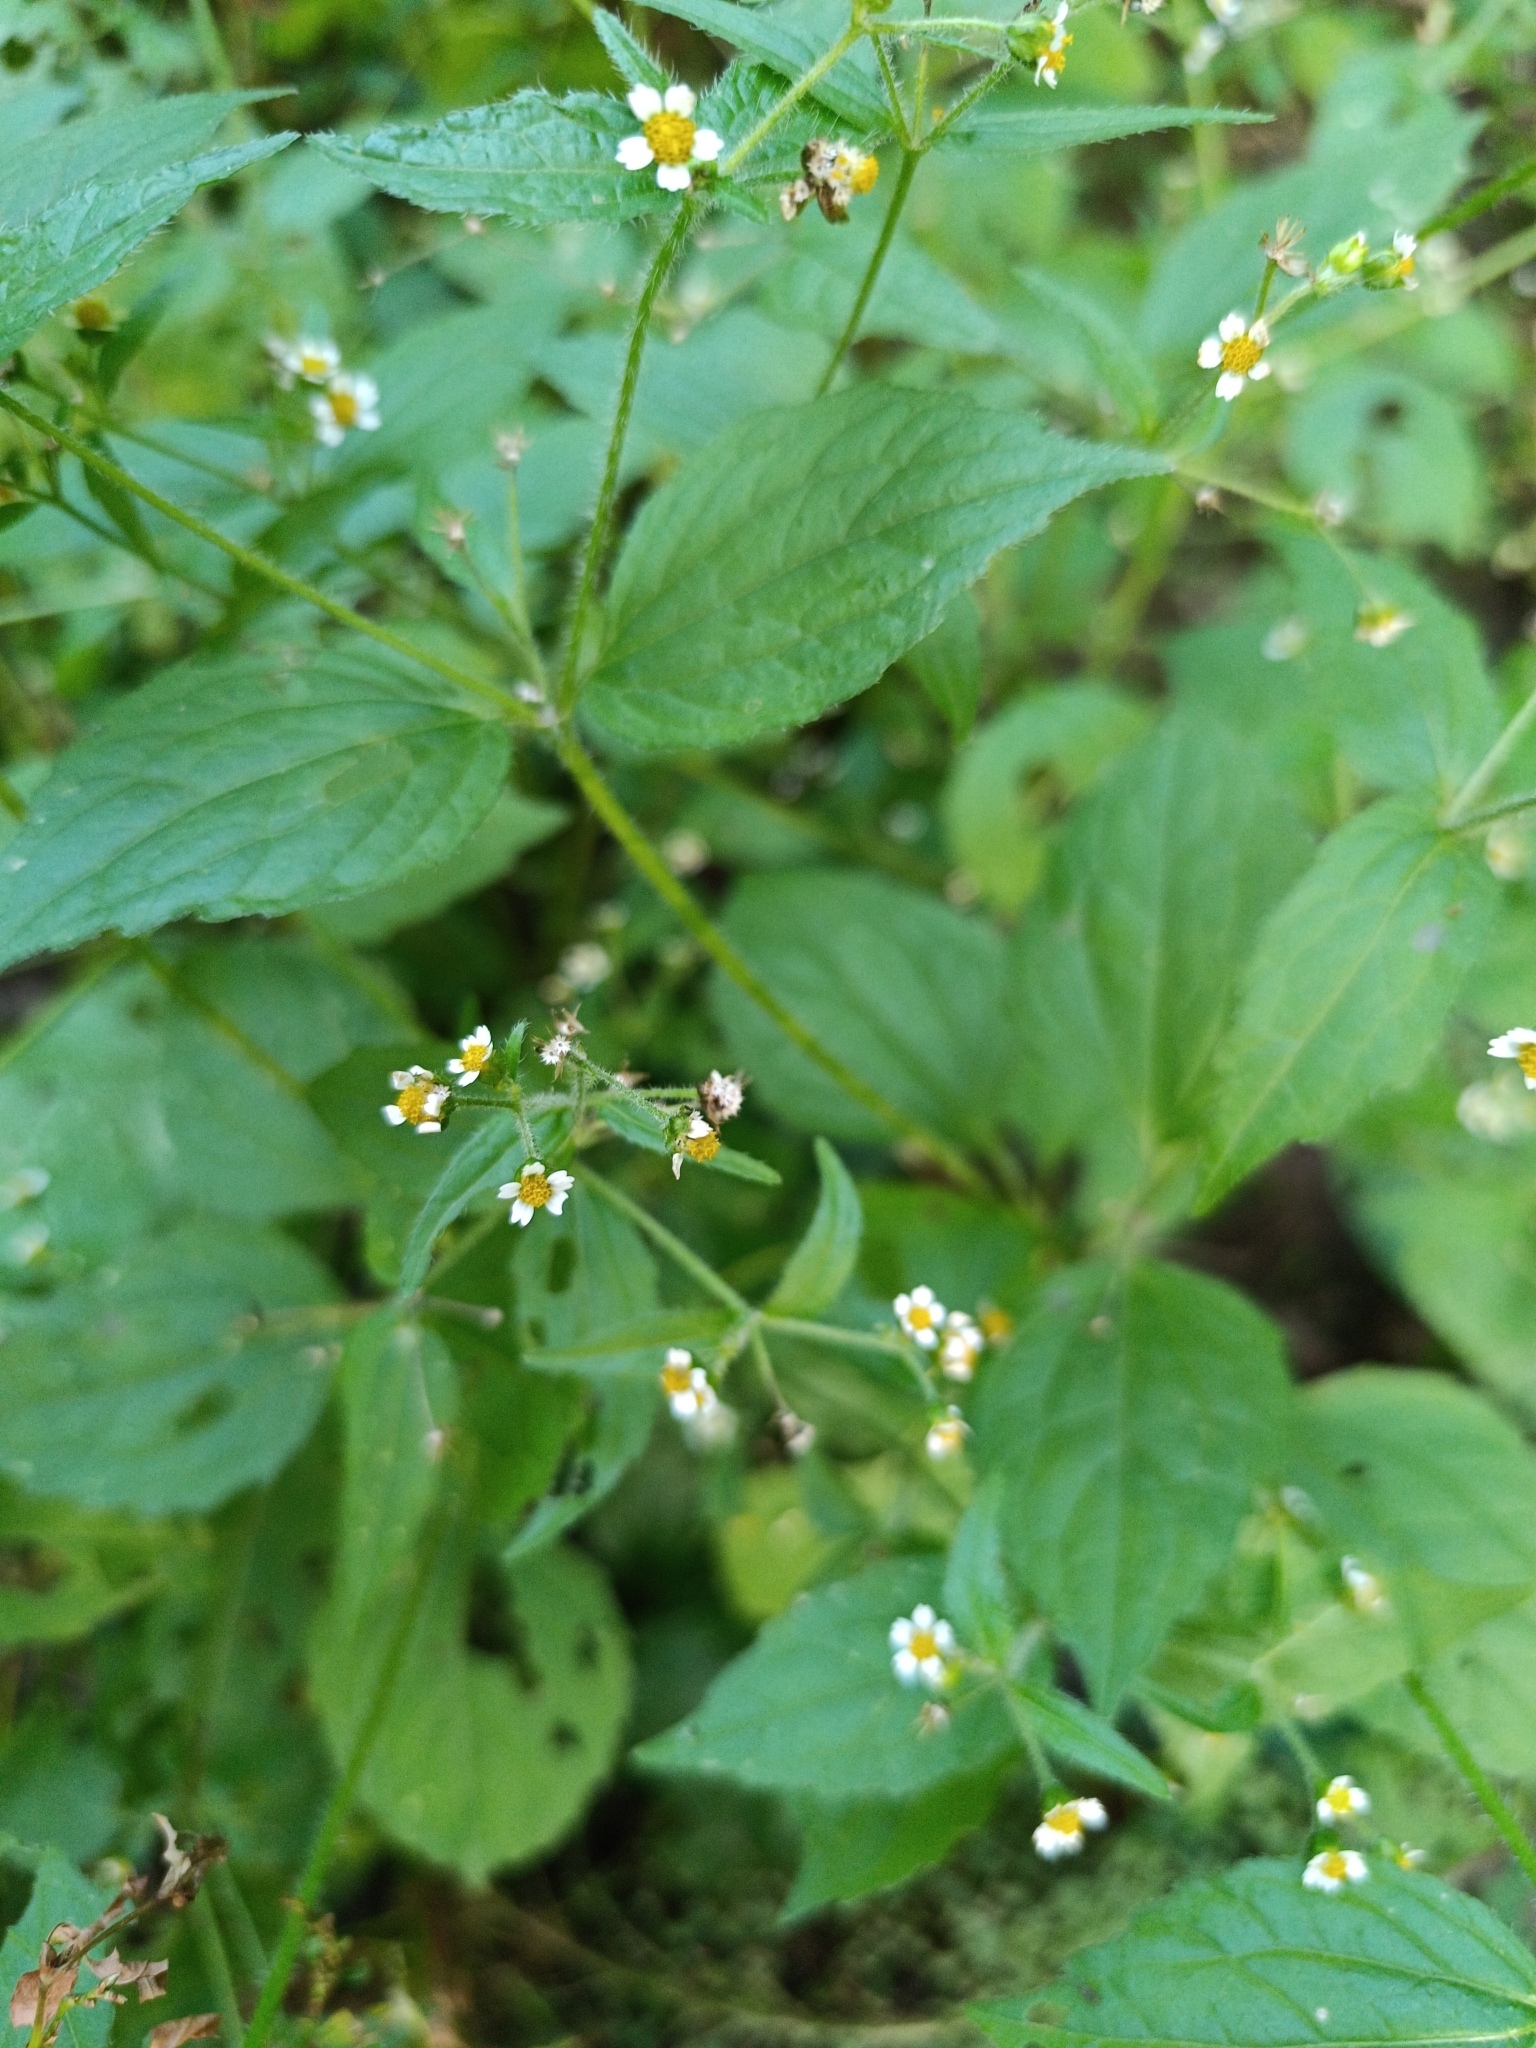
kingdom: Plantae
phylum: Tracheophyta
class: Magnoliopsida
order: Asterales
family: Asteraceae
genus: Galinsoga
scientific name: Galinsoga quadriradiata
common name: Shaggy soldier
